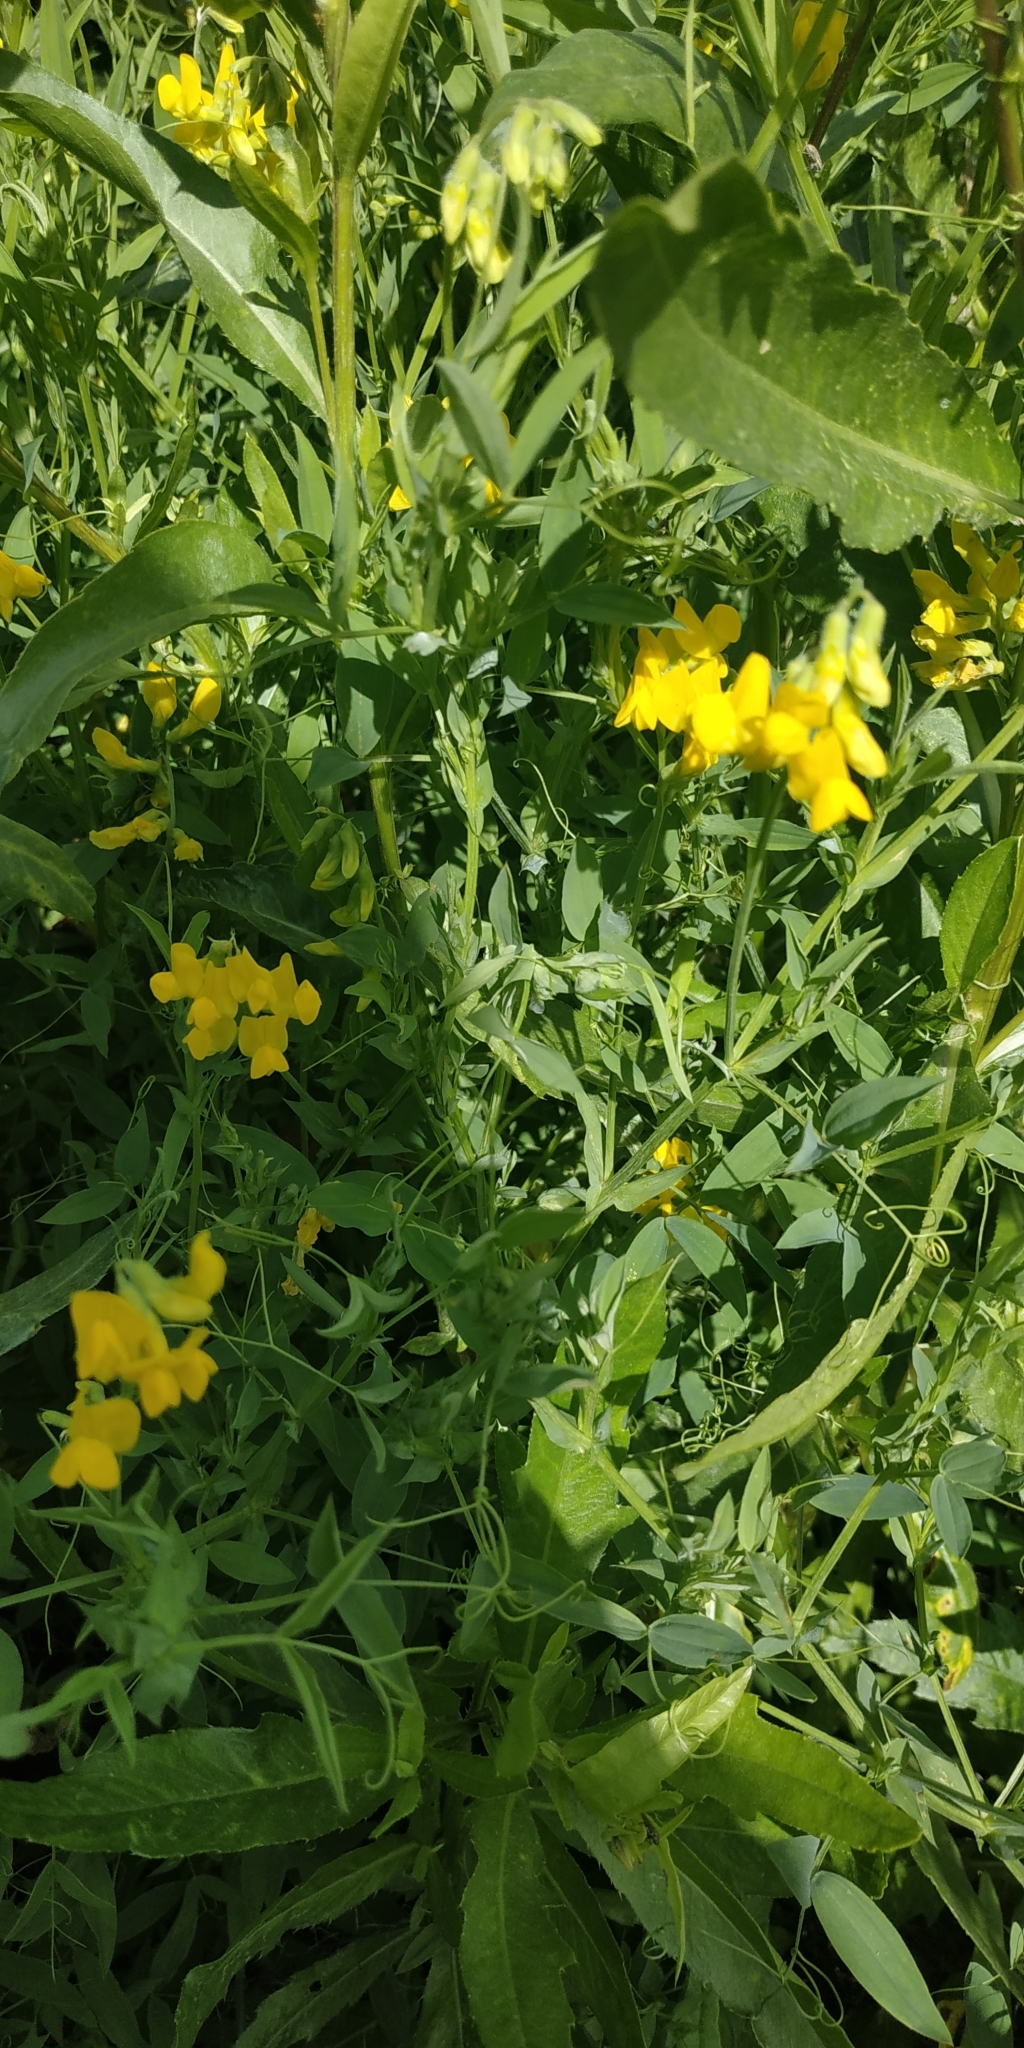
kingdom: Plantae
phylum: Tracheophyta
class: Magnoliopsida
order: Fabales
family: Fabaceae
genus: Lathyrus
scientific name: Lathyrus pratensis
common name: Meadow vetchling
